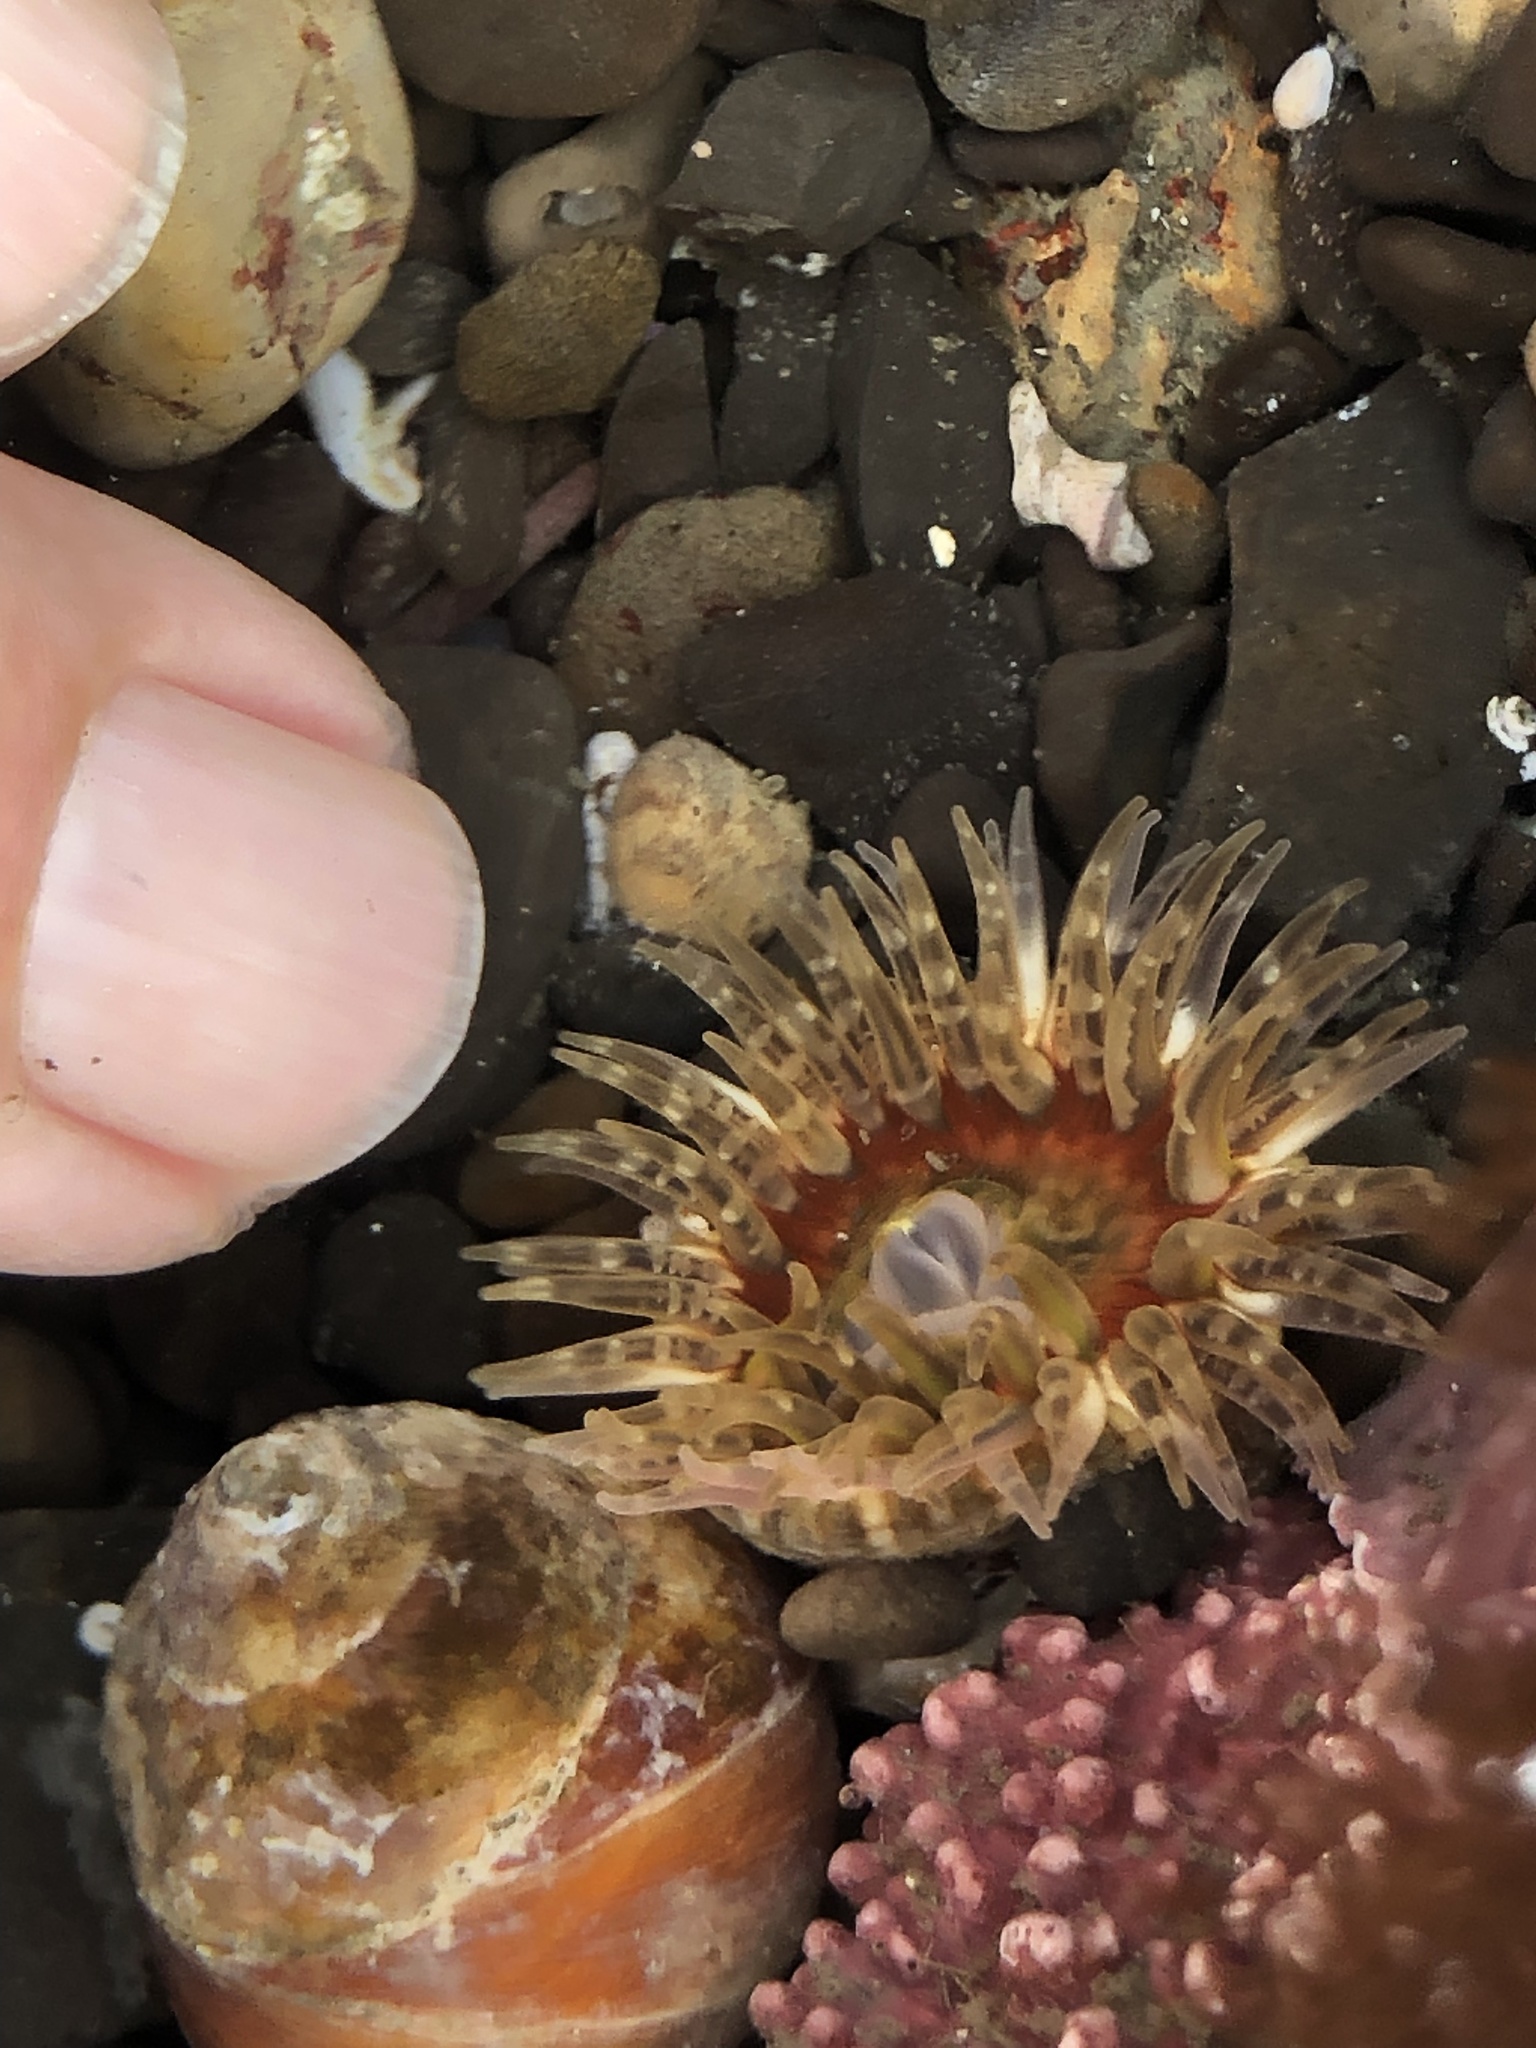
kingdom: Animalia
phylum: Cnidaria
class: Anthozoa
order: Actiniaria
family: Actiniidae
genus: Anthopleura
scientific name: Anthopleura artemisia
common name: Buried sea anemone
